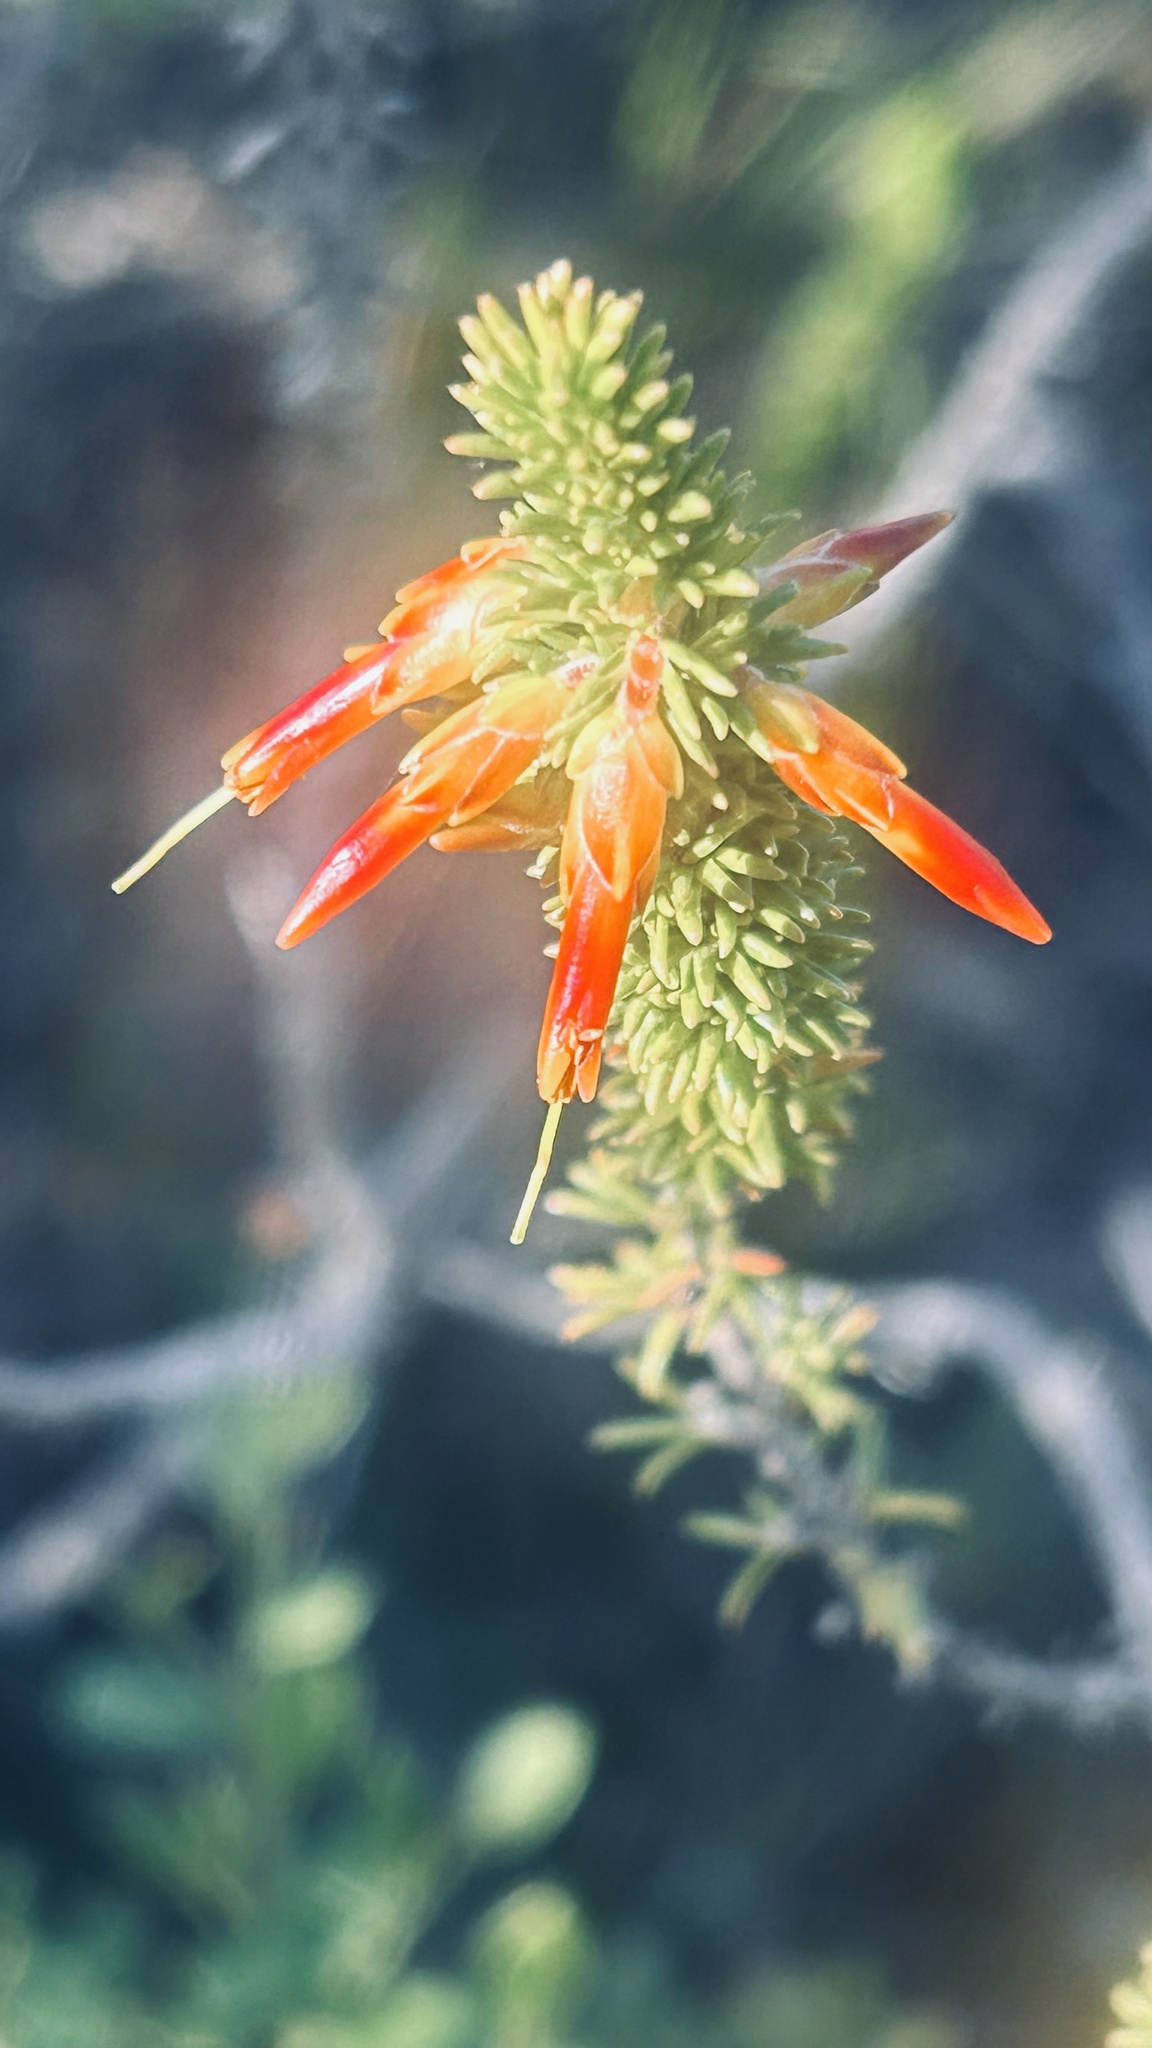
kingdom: Plantae
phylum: Tracheophyta
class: Magnoliopsida
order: Ericales
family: Ericaceae
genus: Erica
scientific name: Erica coccinea
